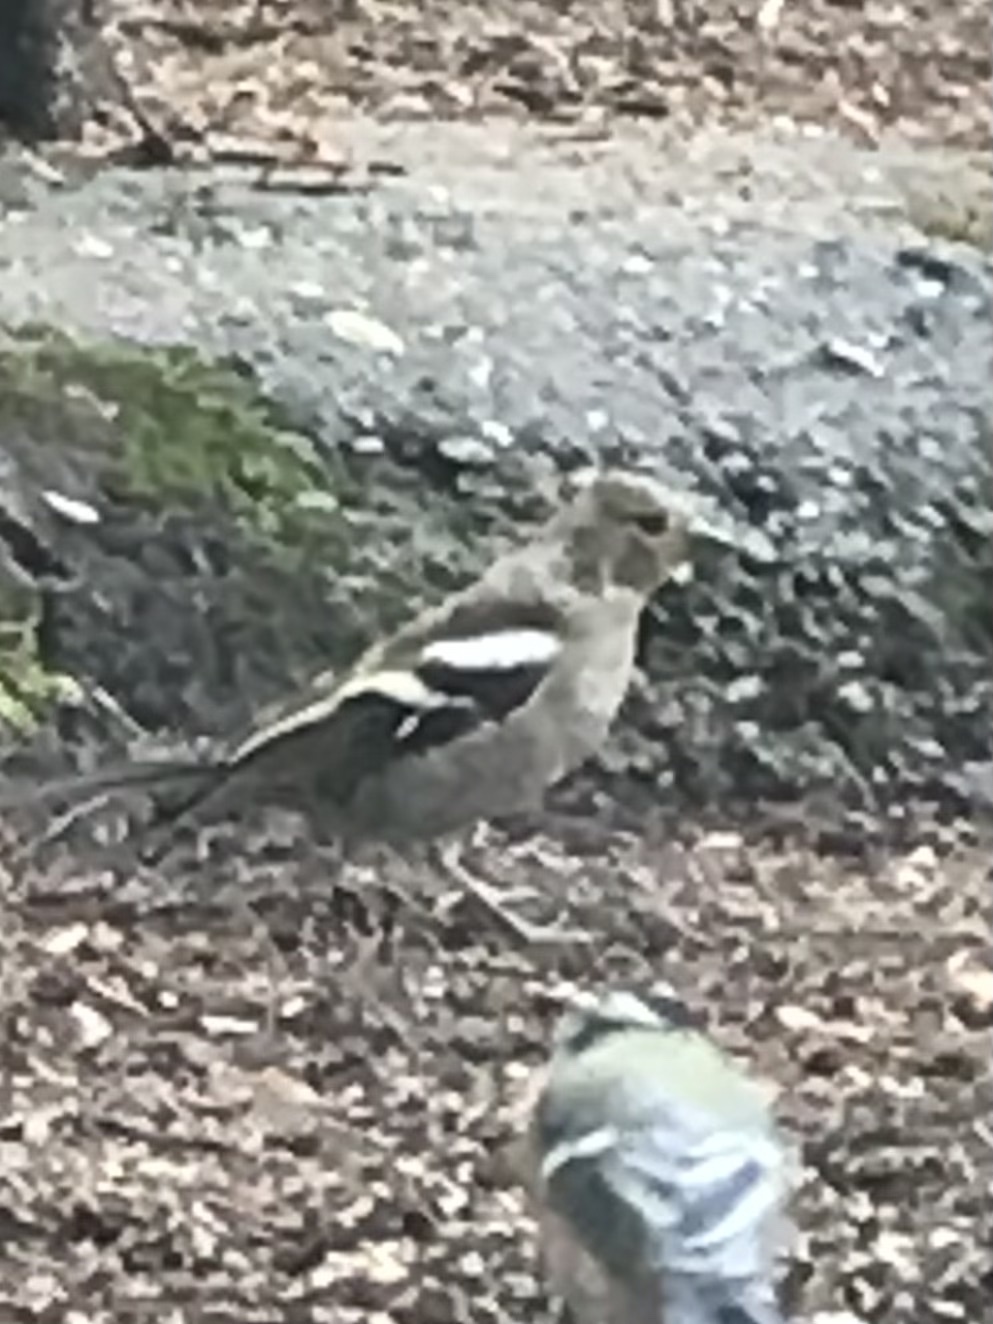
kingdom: Animalia
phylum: Chordata
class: Aves
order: Passeriformes
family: Fringillidae
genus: Fringilla
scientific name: Fringilla coelebs
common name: Common chaffinch
